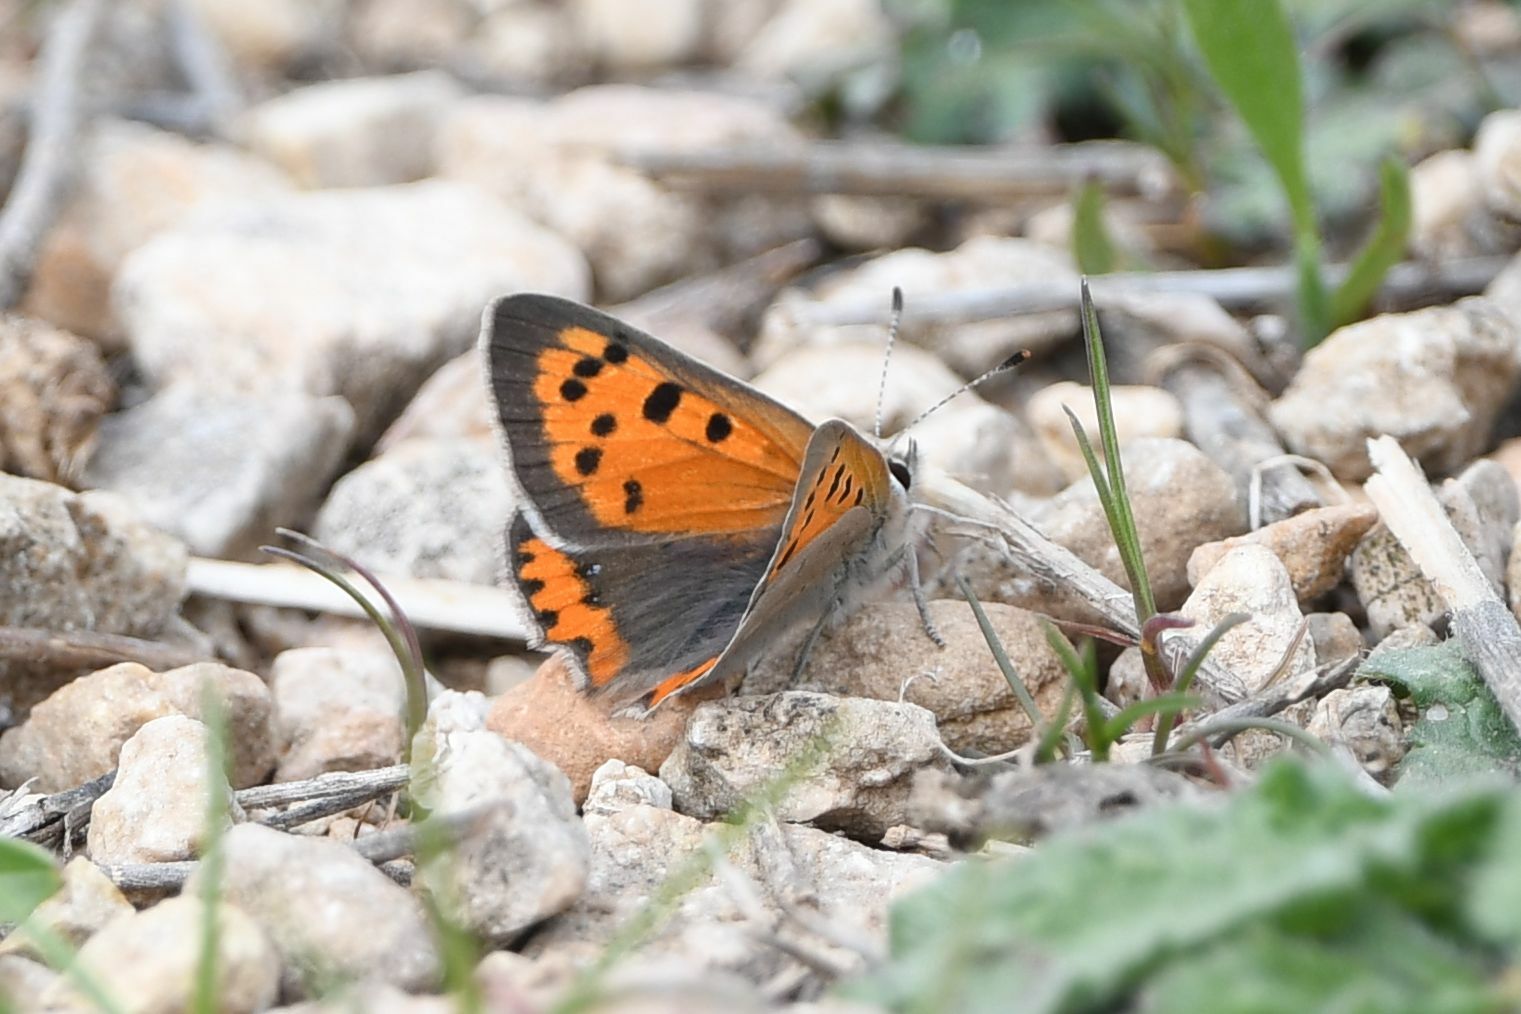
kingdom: Animalia
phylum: Arthropoda
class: Insecta
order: Lepidoptera
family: Lycaenidae
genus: Lycaena
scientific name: Lycaena phlaeas
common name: Small copper
